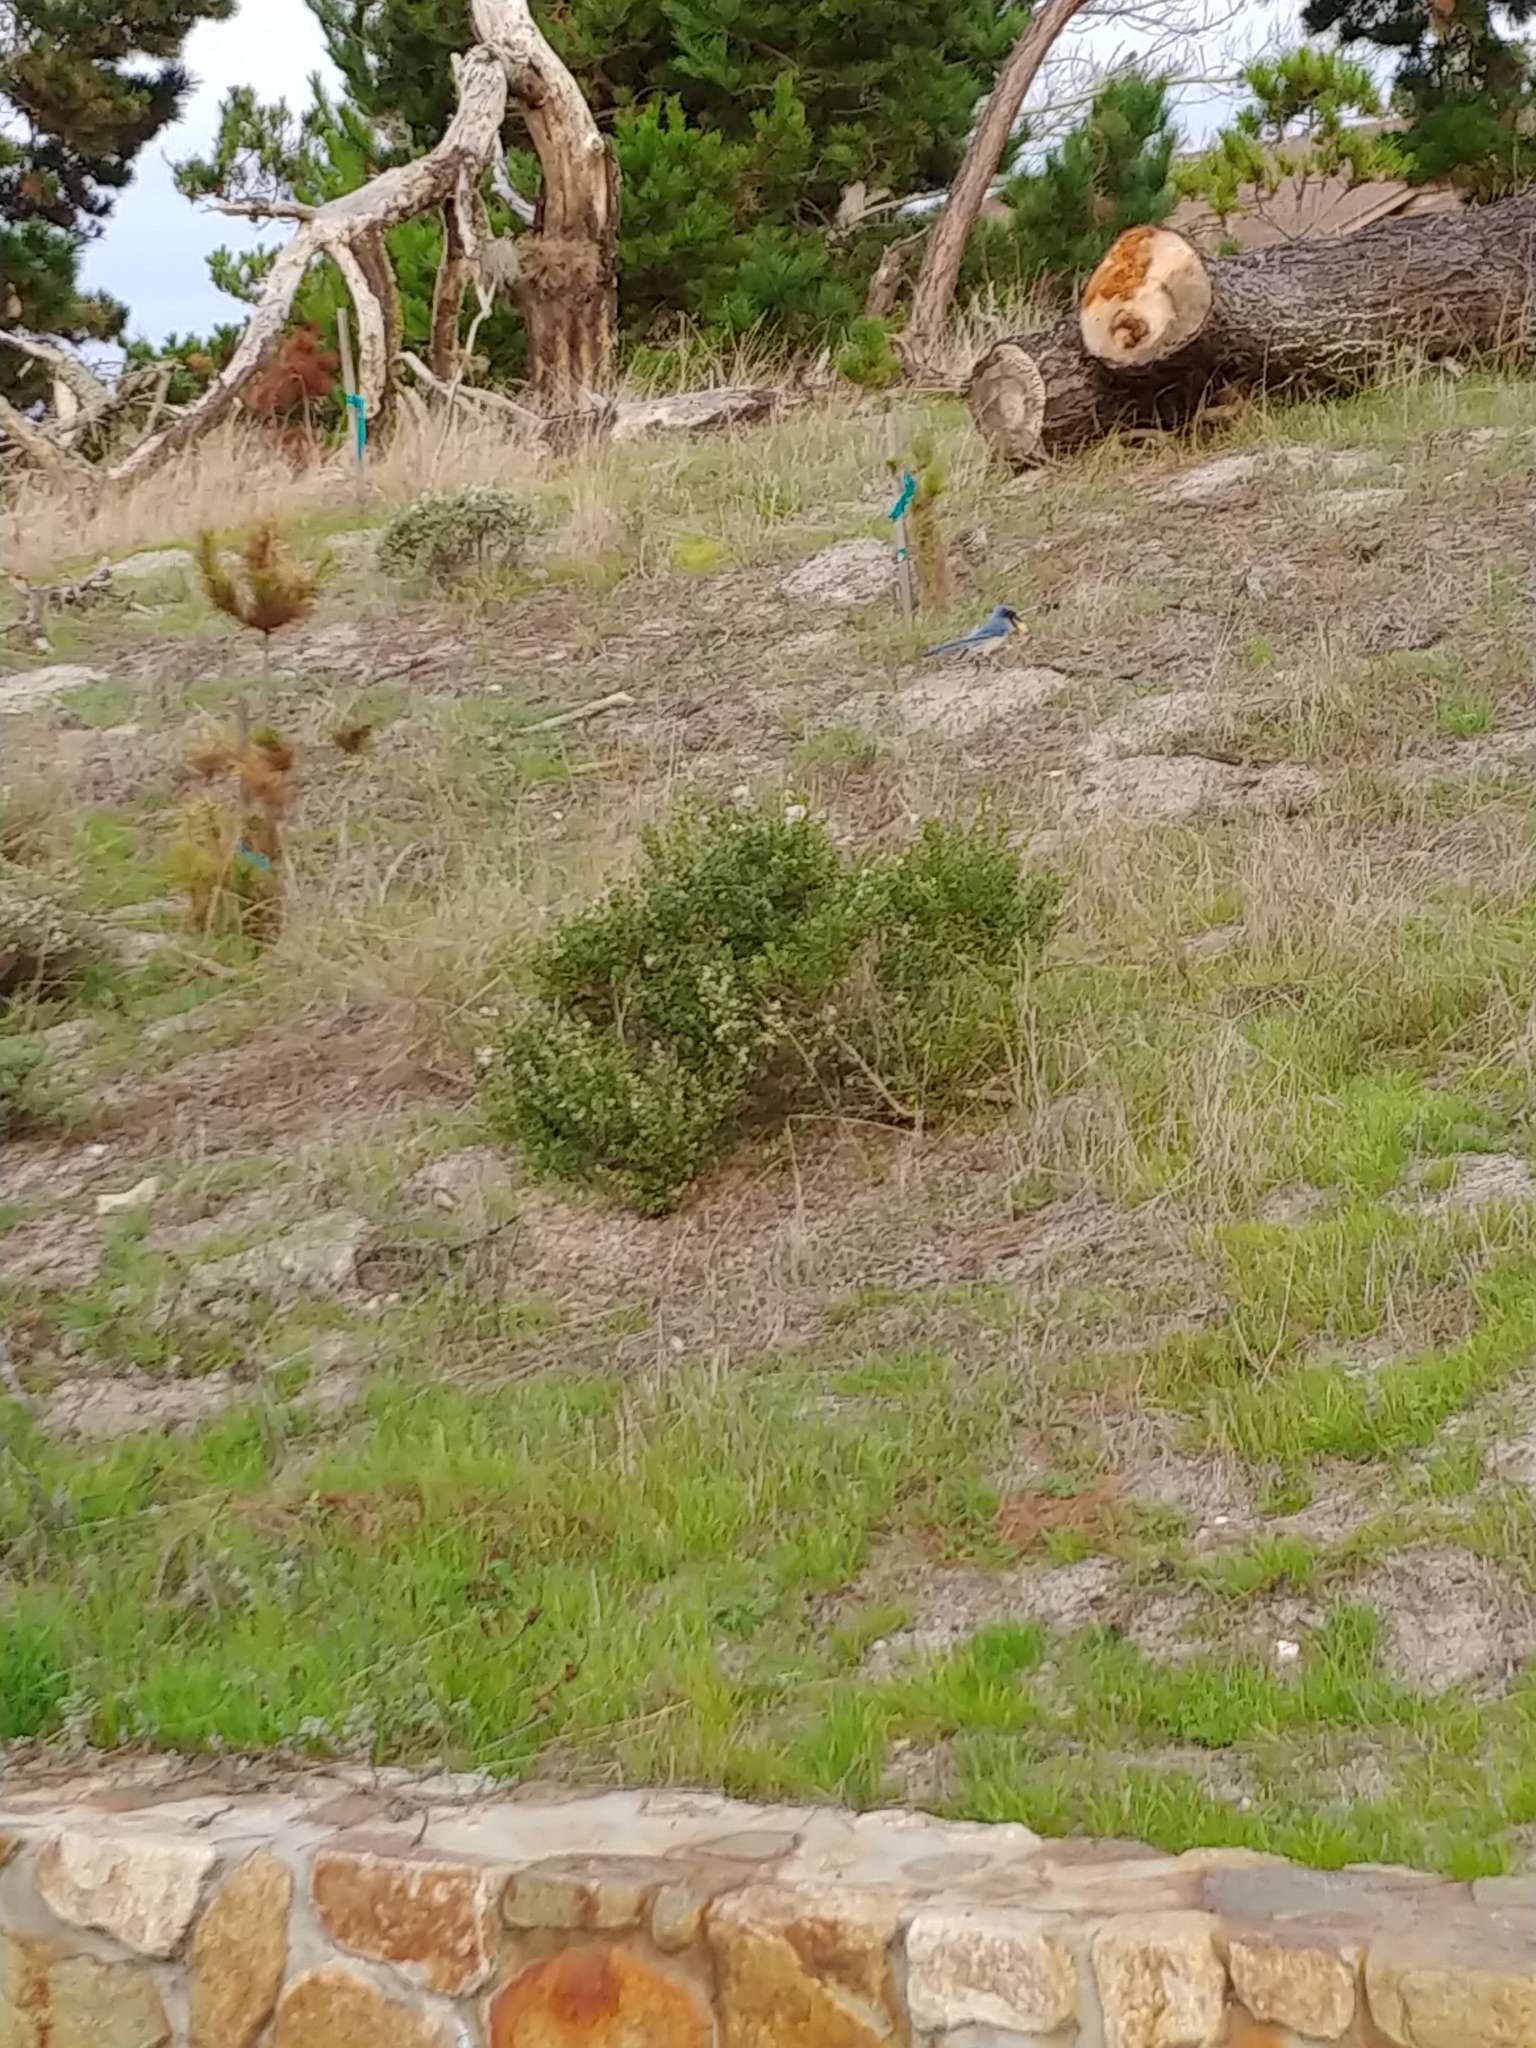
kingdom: Animalia
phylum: Chordata
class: Aves
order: Passeriformes
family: Corvidae
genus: Aphelocoma
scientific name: Aphelocoma californica
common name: California scrub-jay
